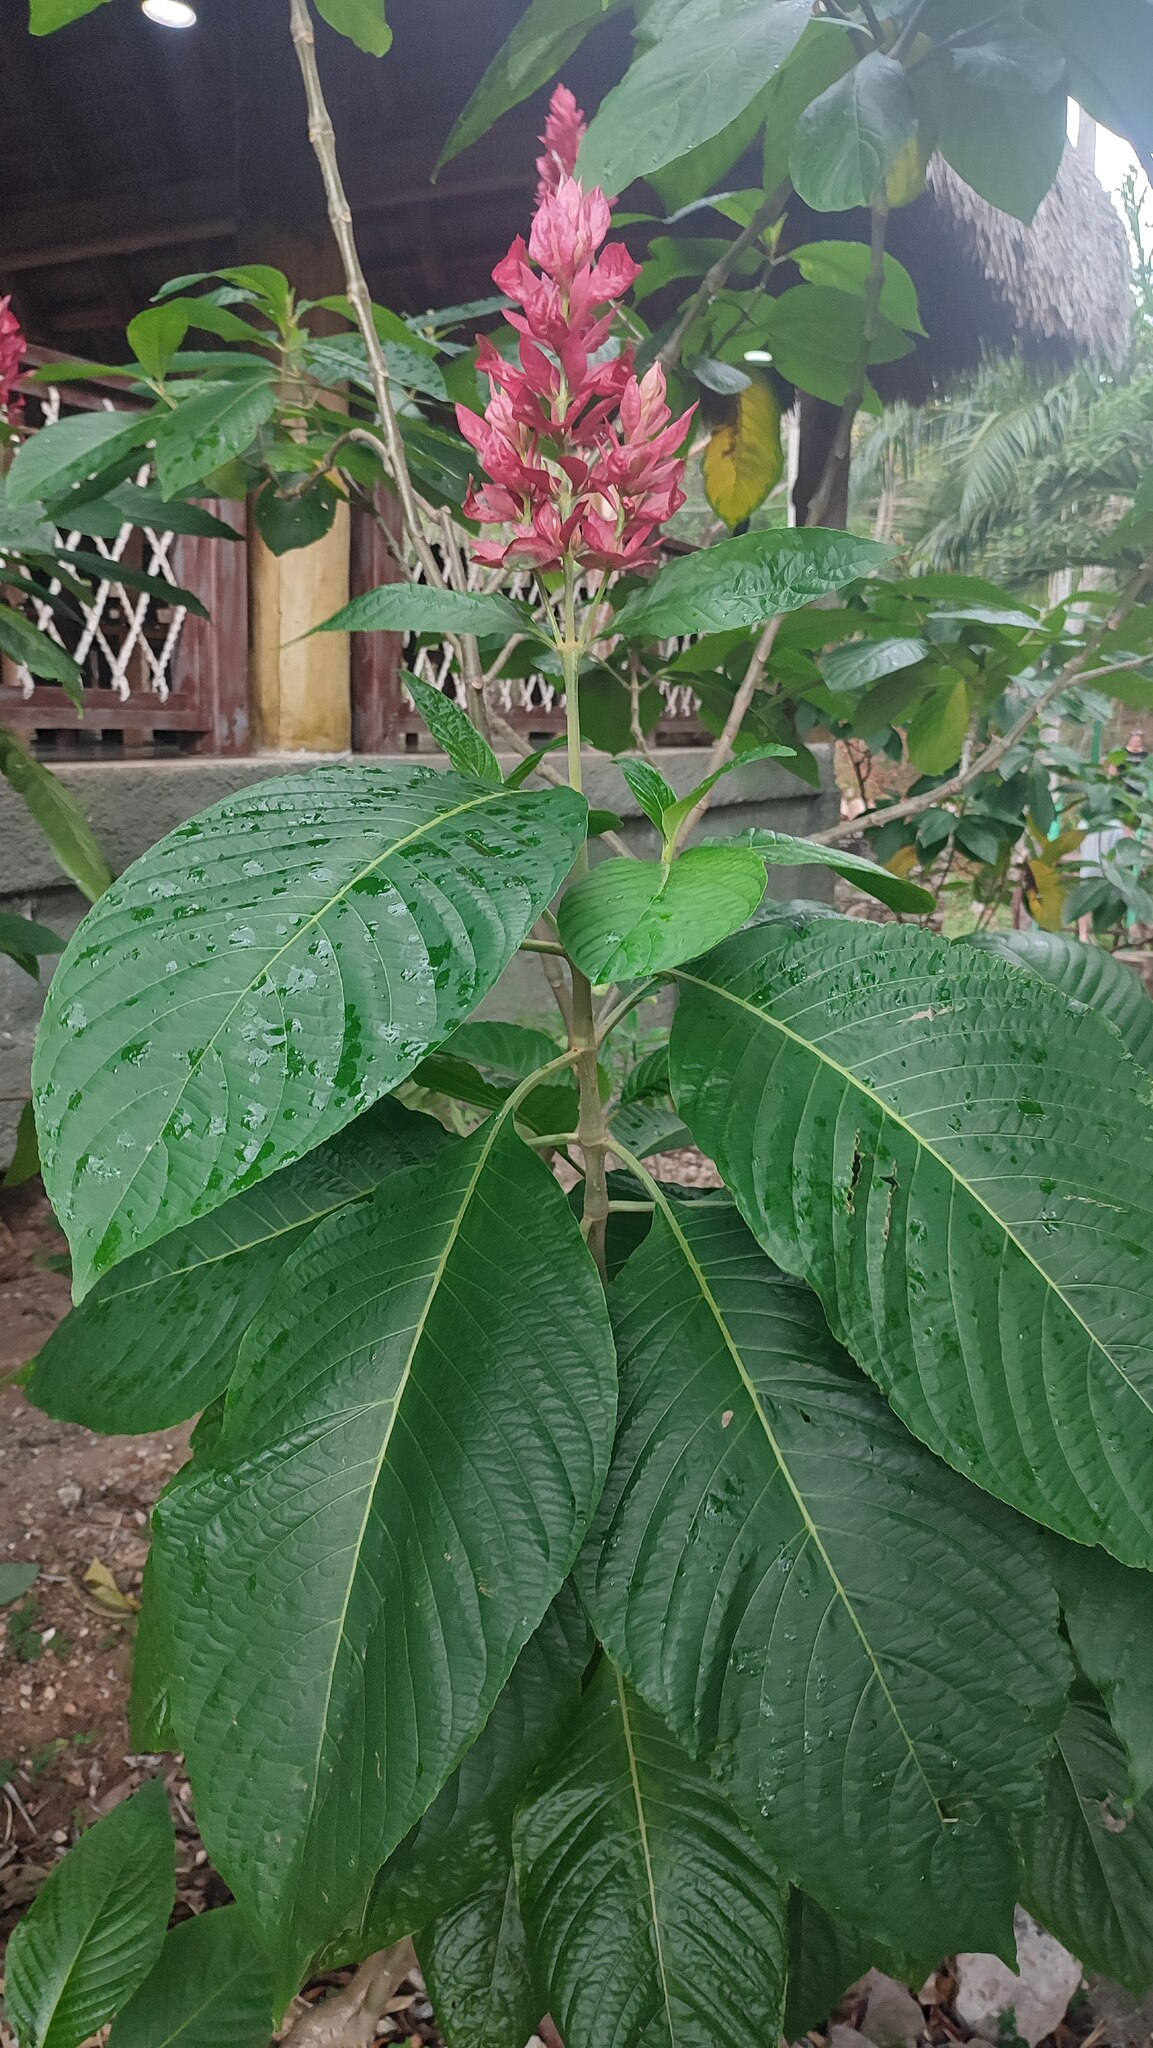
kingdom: Plantae
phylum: Tracheophyta
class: Magnoliopsida
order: Lamiales
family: Acanthaceae
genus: Megaskepasma
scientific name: Megaskepasma erythrochlamys
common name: Brazilian red-cloak
